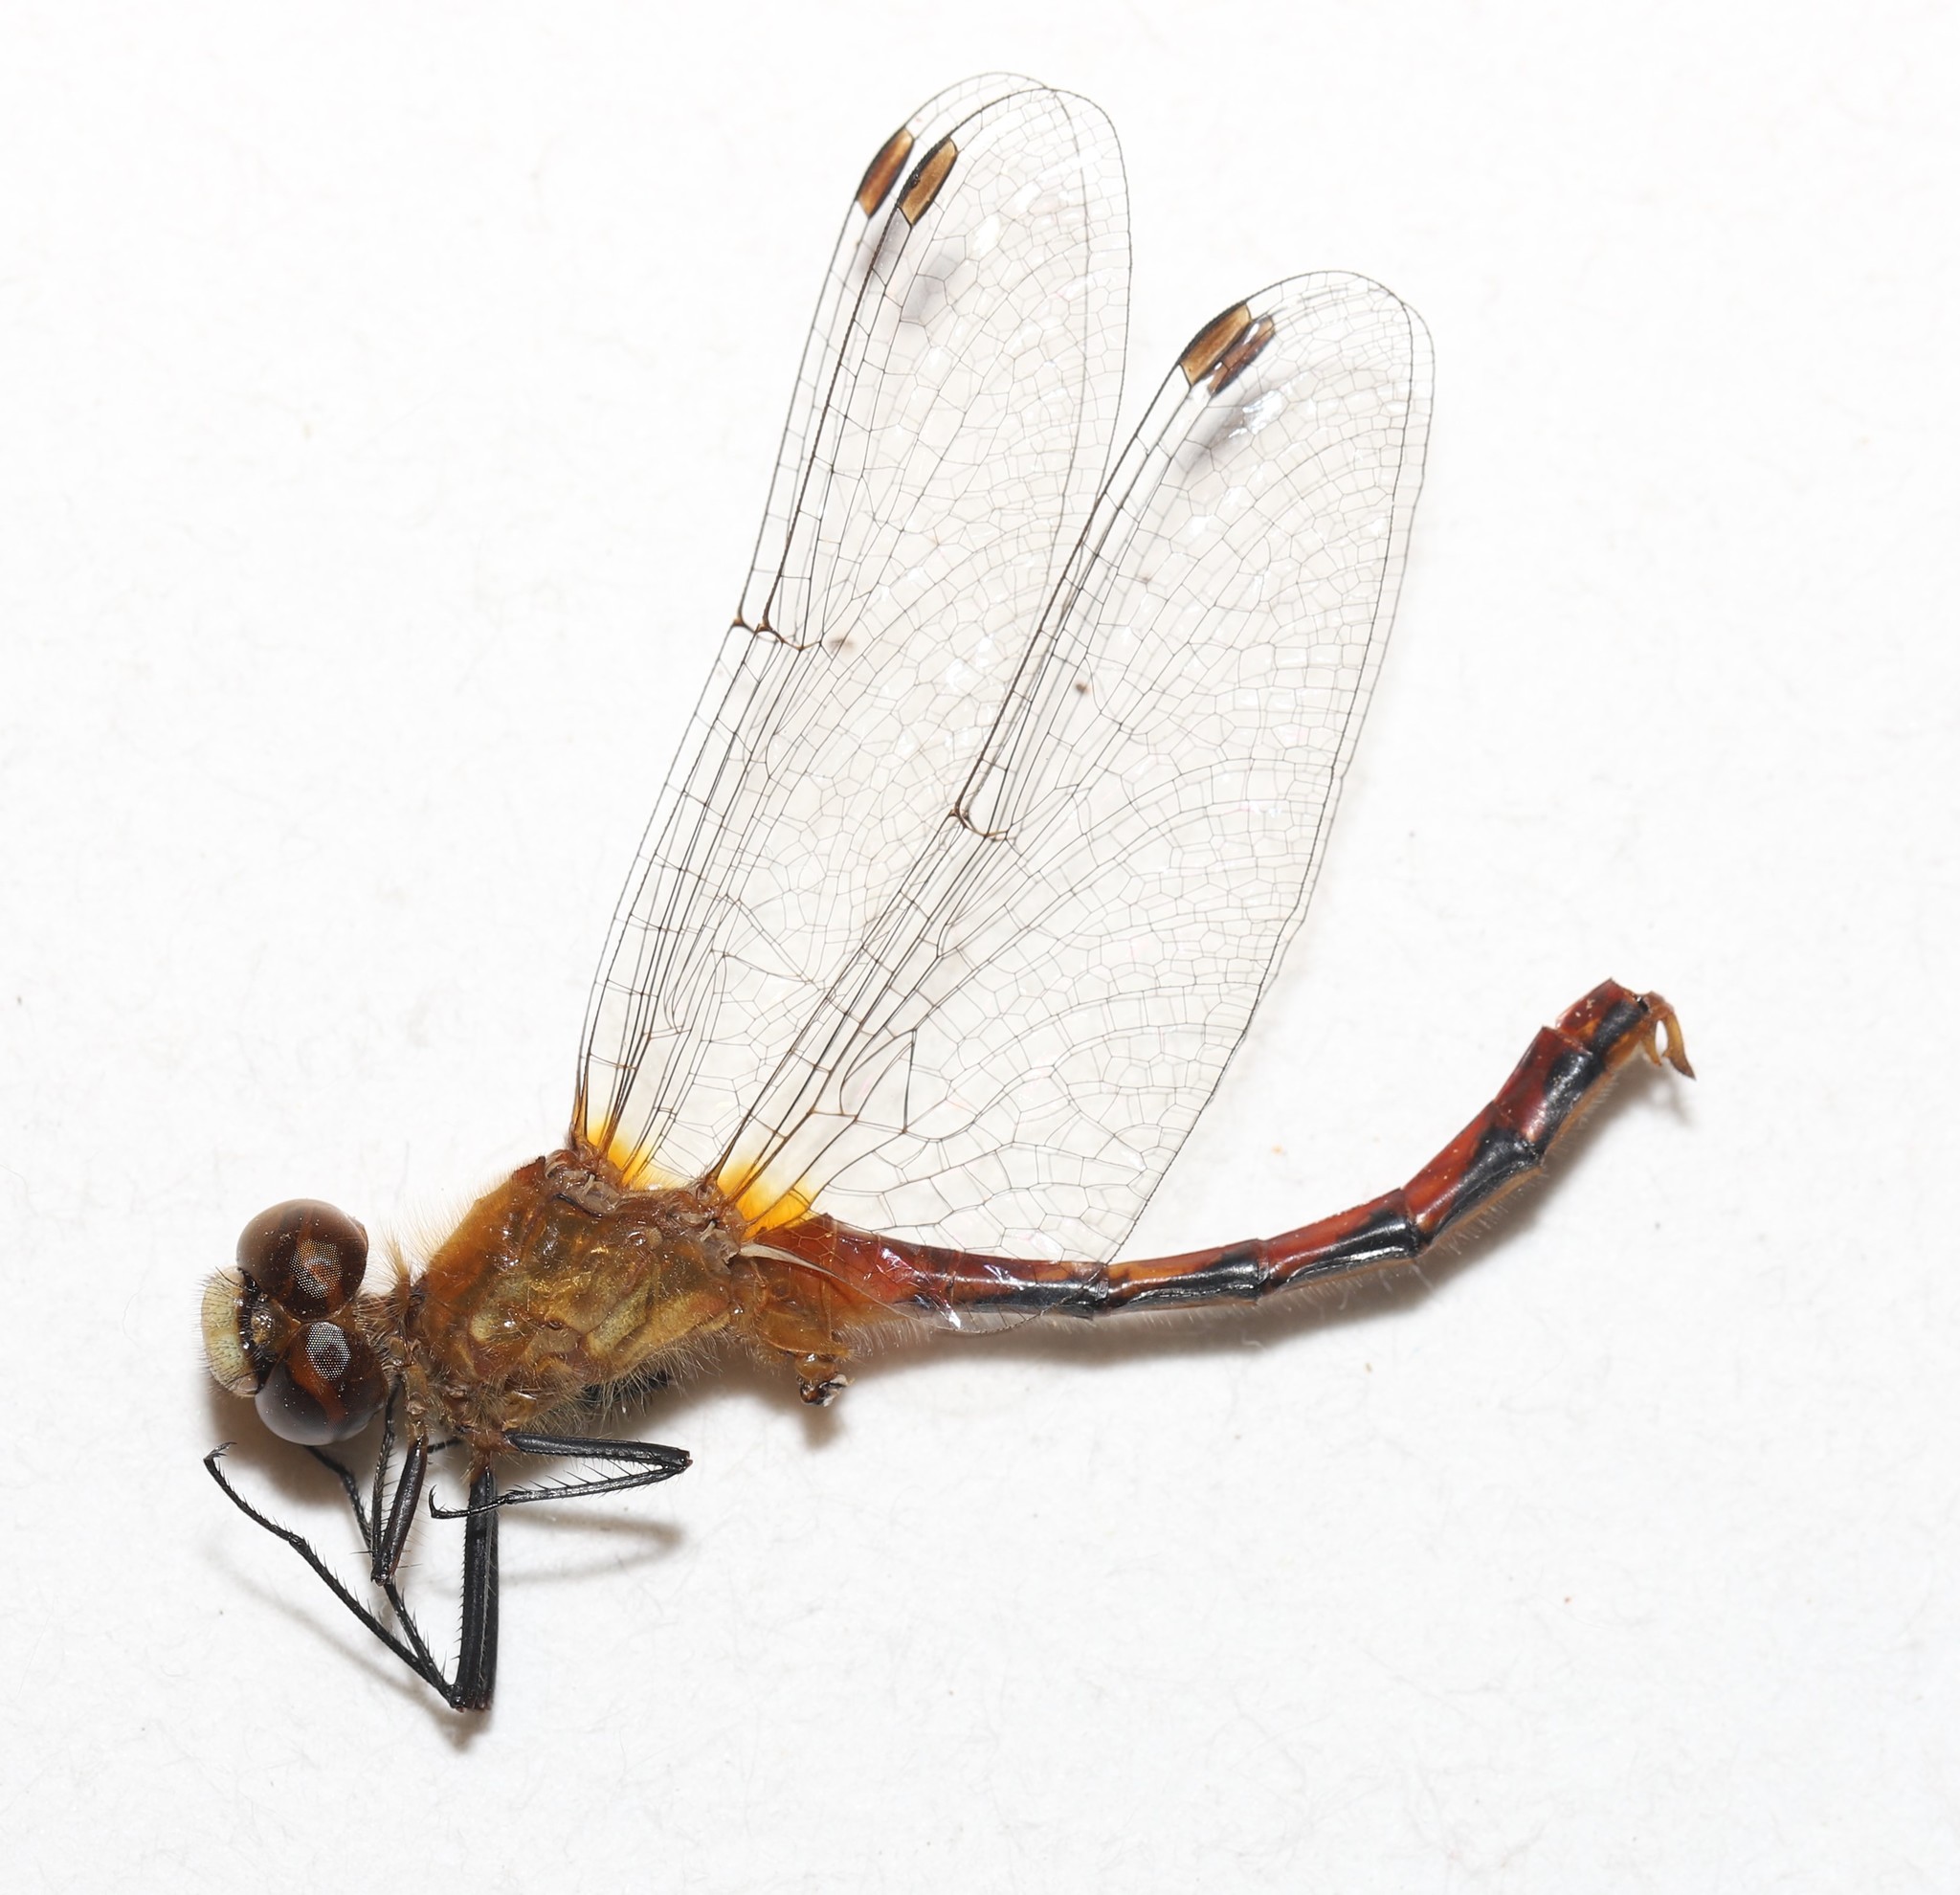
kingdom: Animalia
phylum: Arthropoda
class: Insecta
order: Odonata
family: Libellulidae
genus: Sympetrum
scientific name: Sympetrum obtrusum
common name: White-faced meadowhawk
